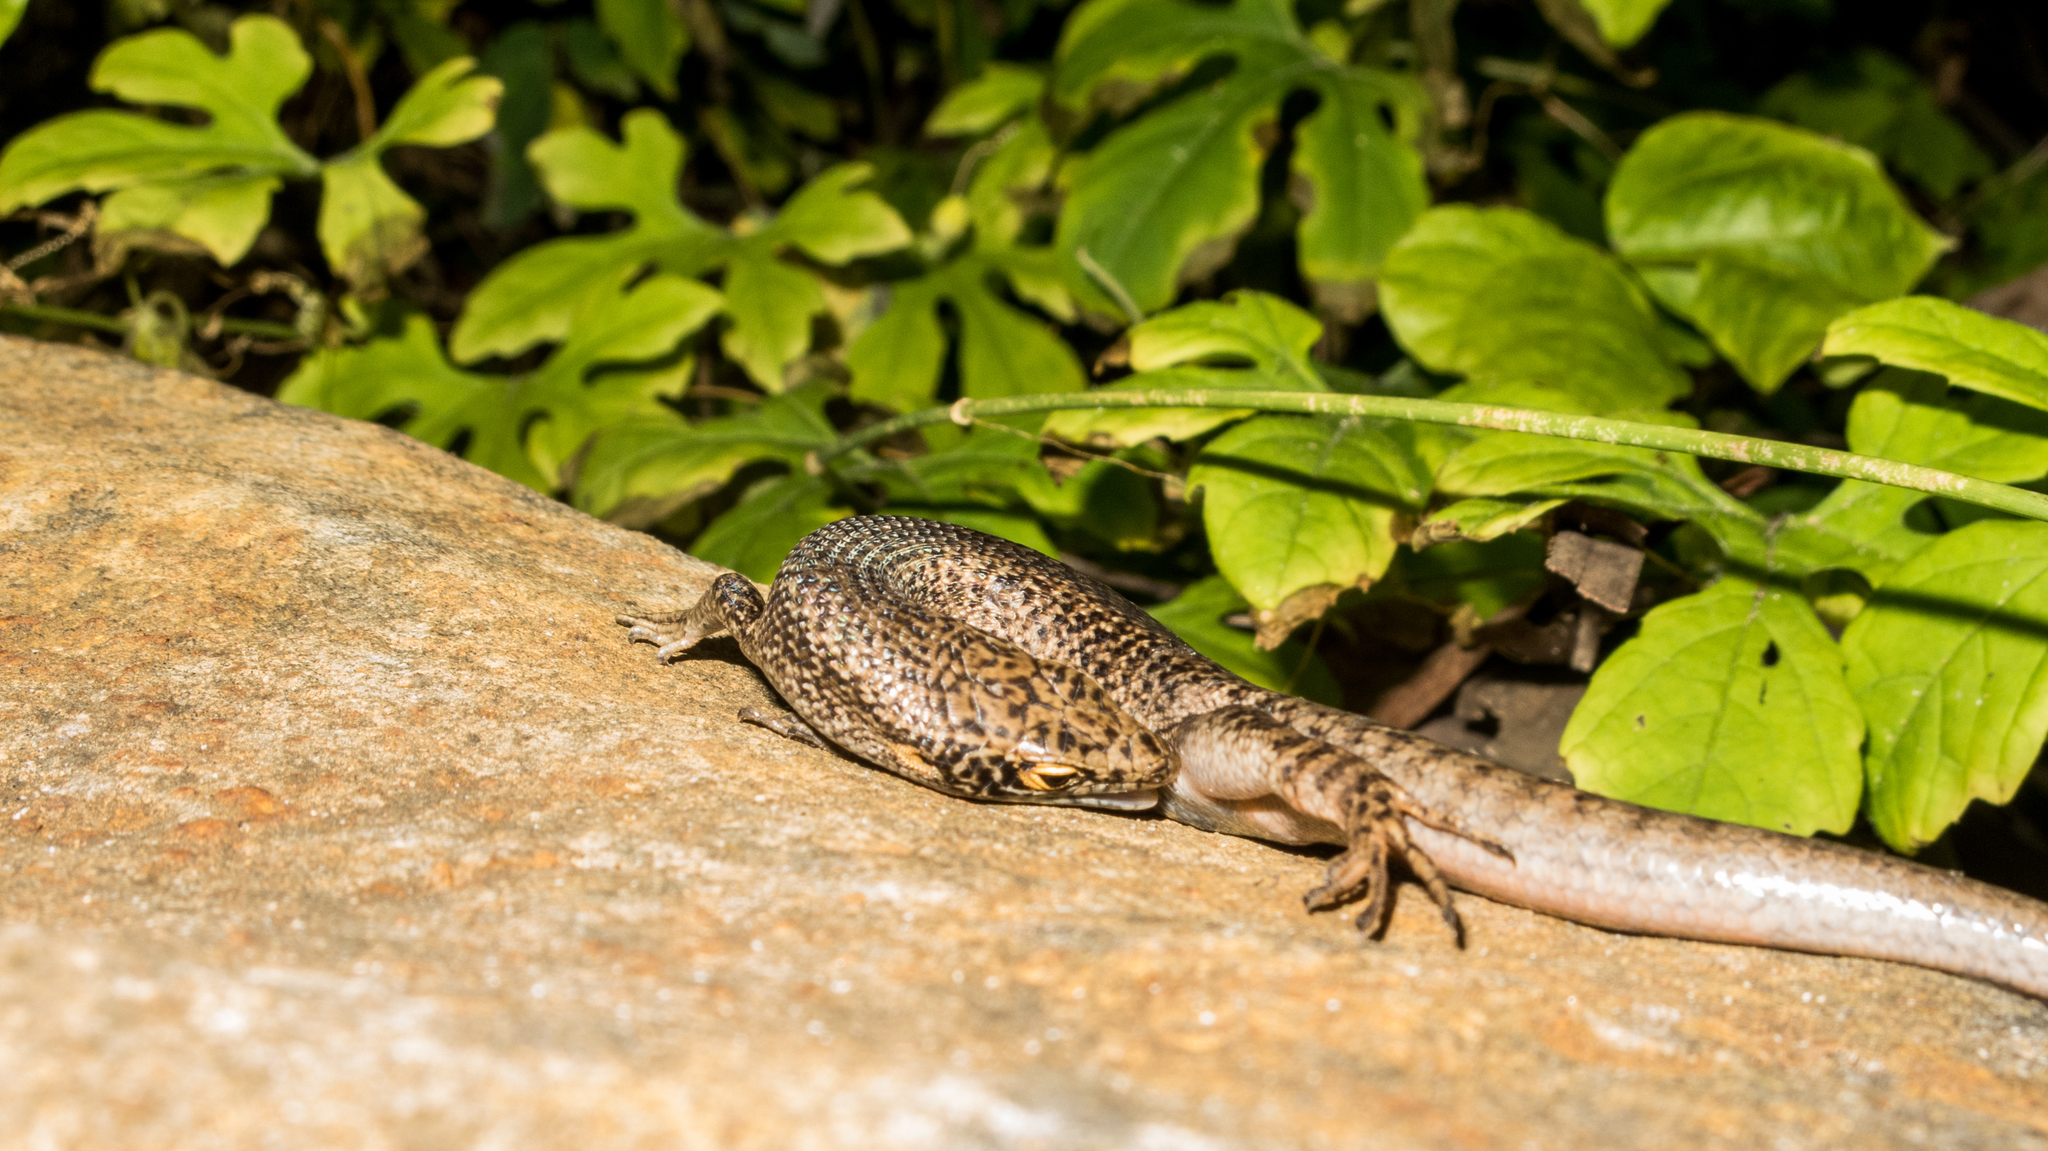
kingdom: Animalia
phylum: Chordata
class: Squamata
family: Scincidae
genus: Trachylepis
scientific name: Trachylepis atlantica
